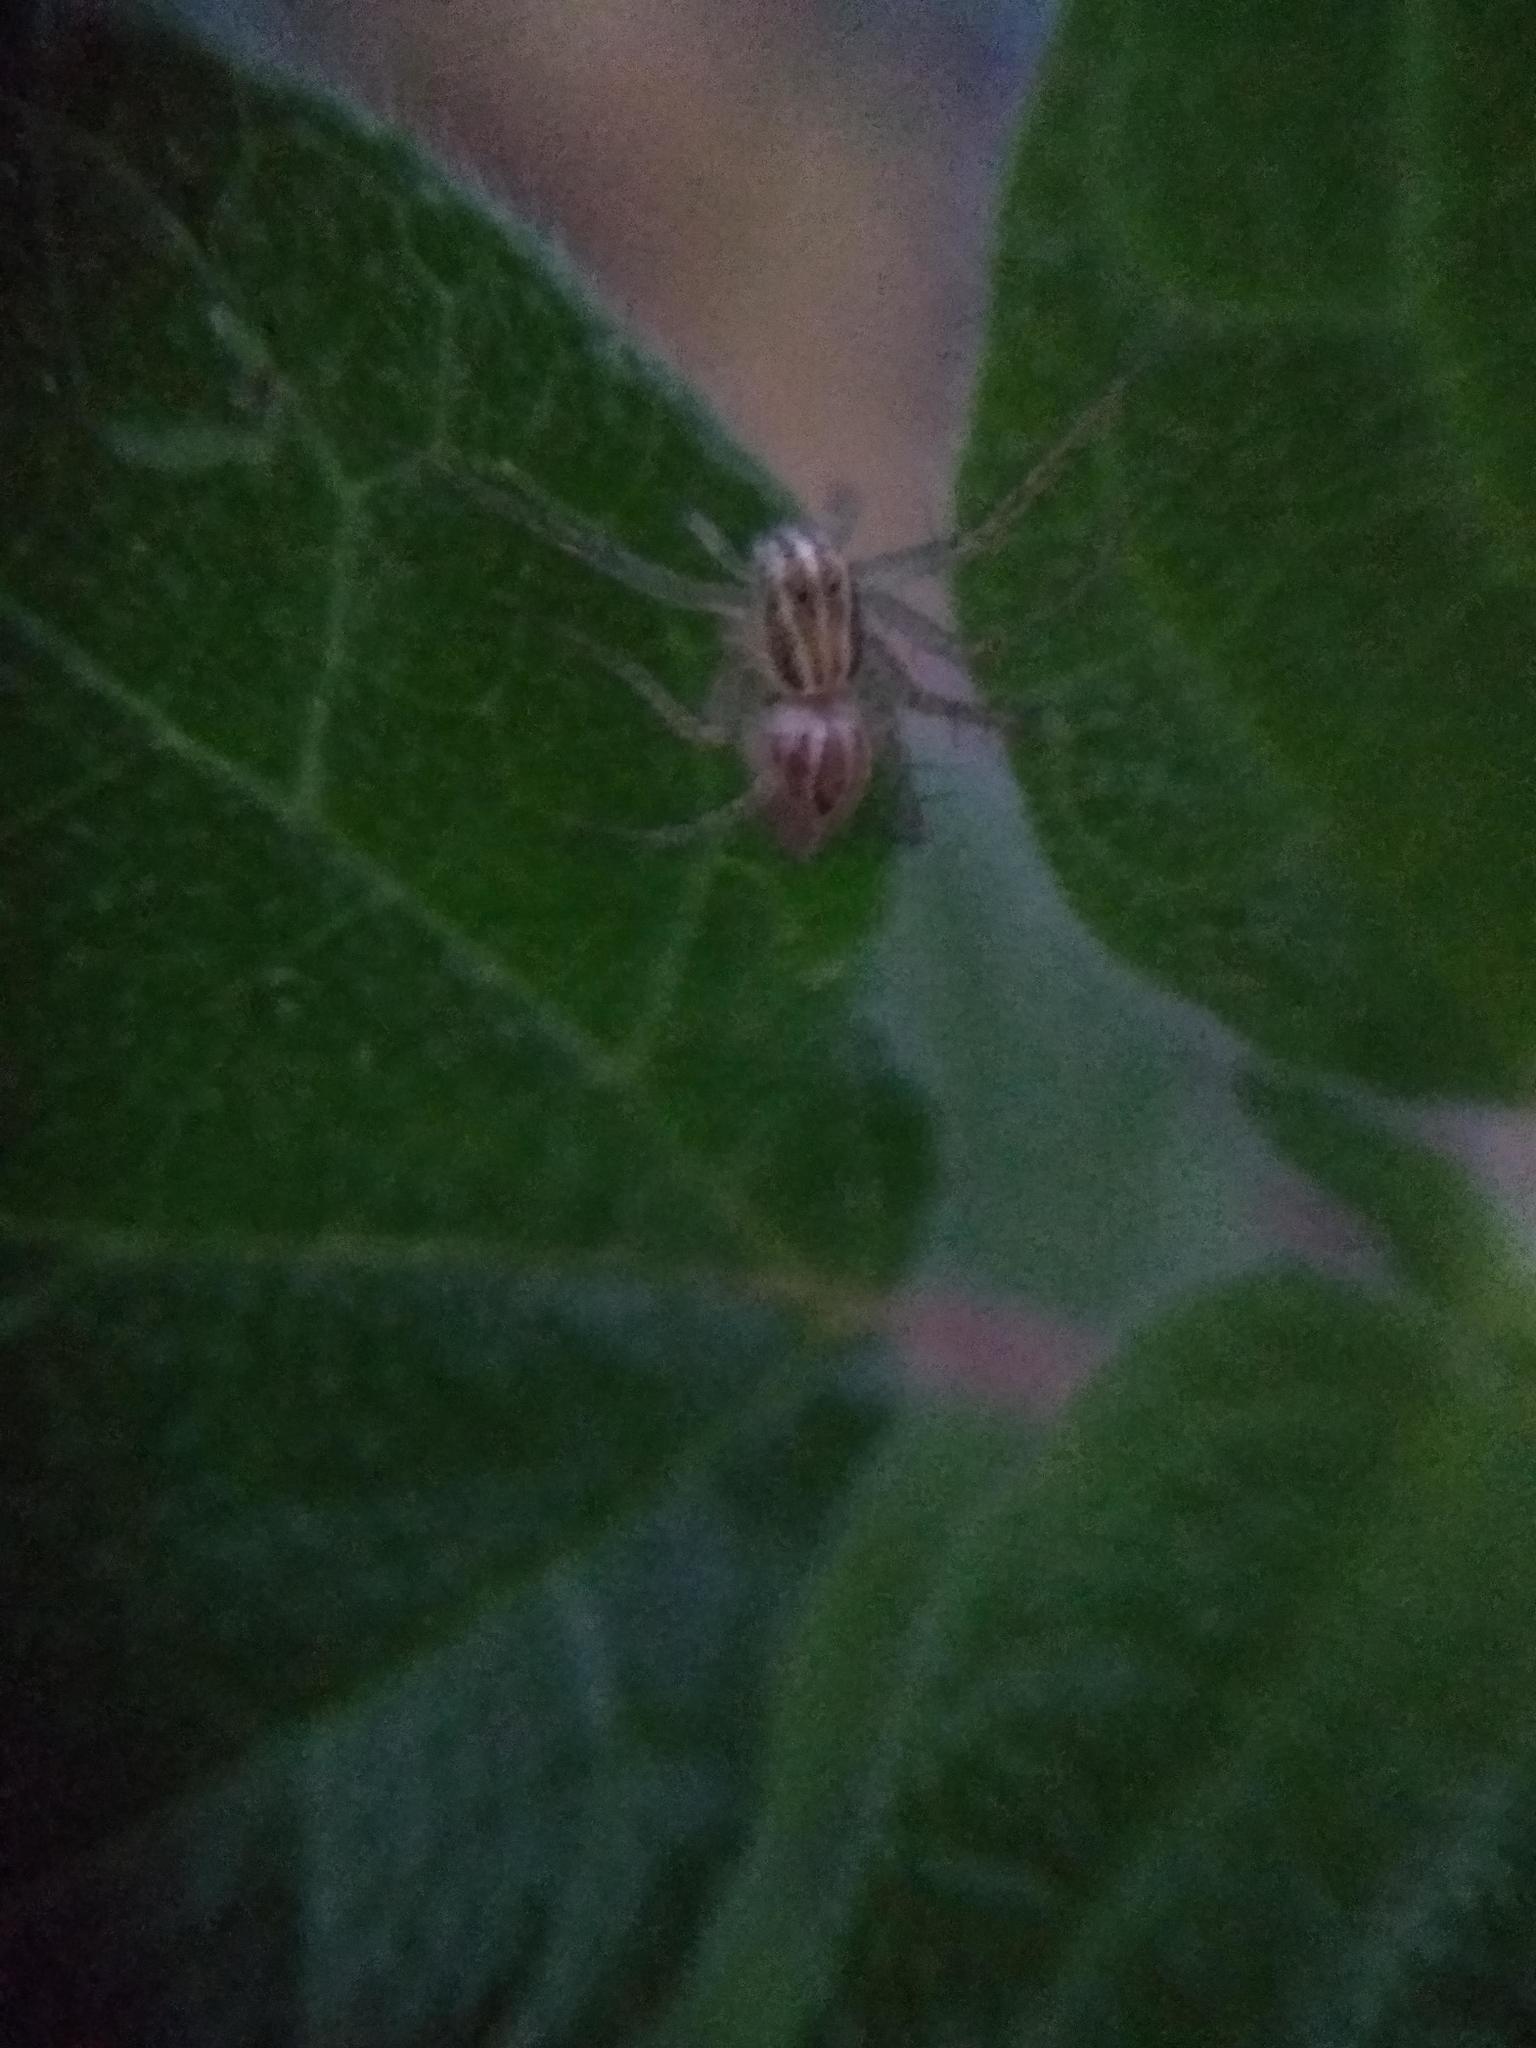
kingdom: Animalia
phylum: Arthropoda
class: Arachnida
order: Araneae
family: Oxyopidae
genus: Oxyopes
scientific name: Oxyopes salticus
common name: Lynx spiders
